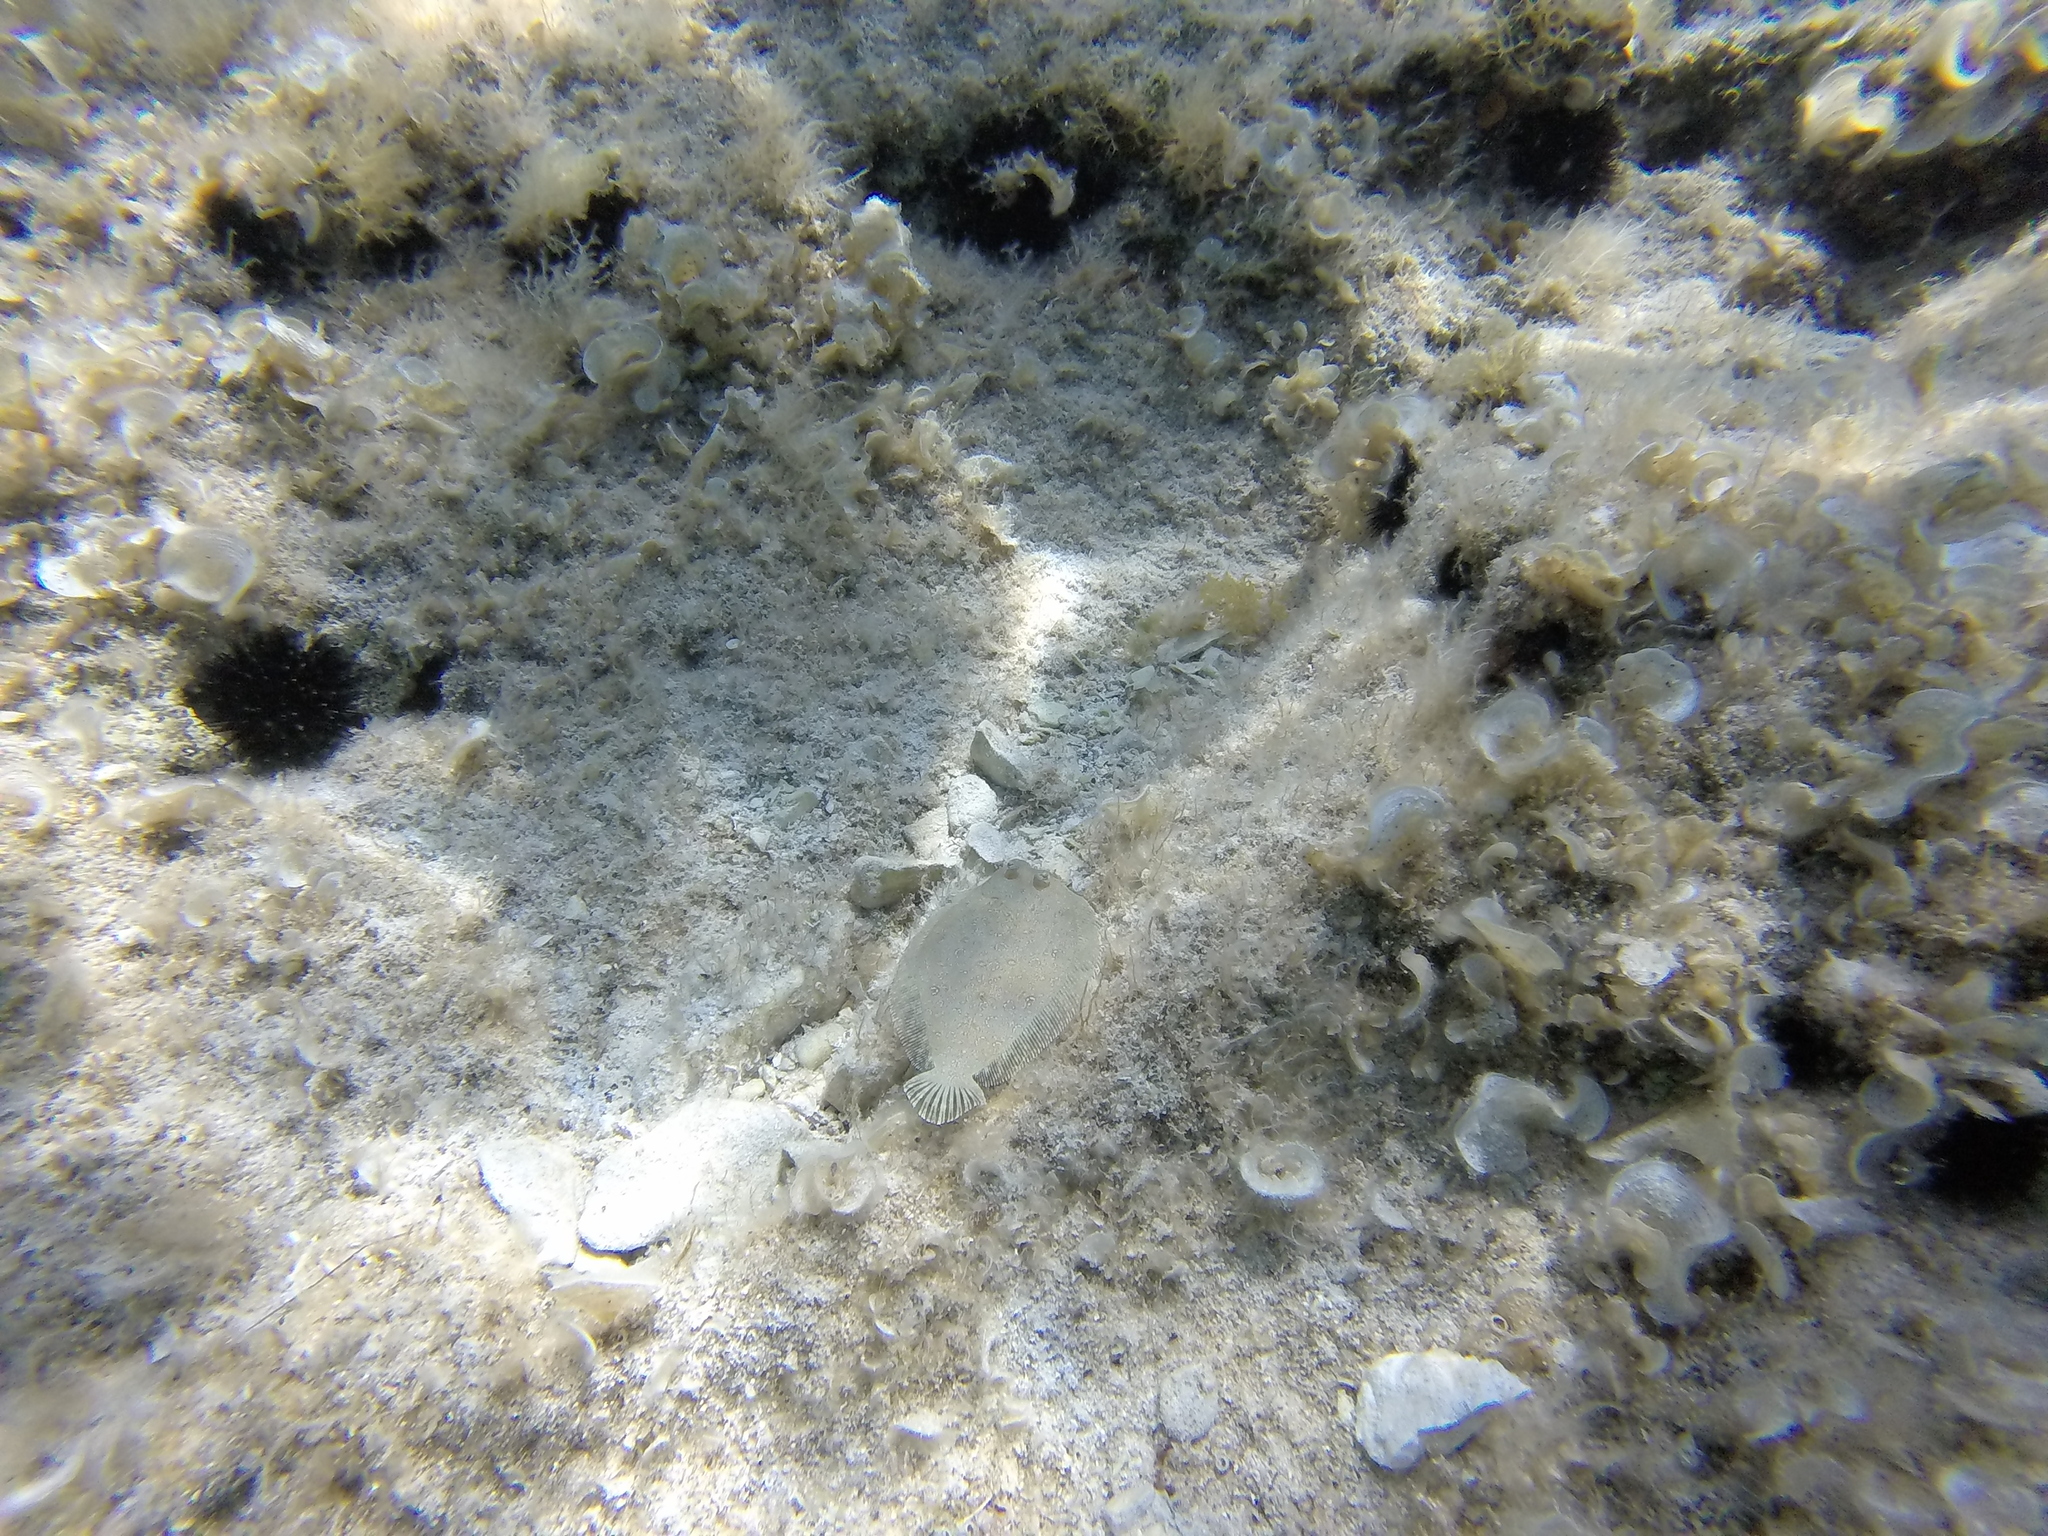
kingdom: Animalia
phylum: Chordata
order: Pleuronectiformes
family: Bothidae
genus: Bothus
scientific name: Bothus podas
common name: Wide-eyed flounder
